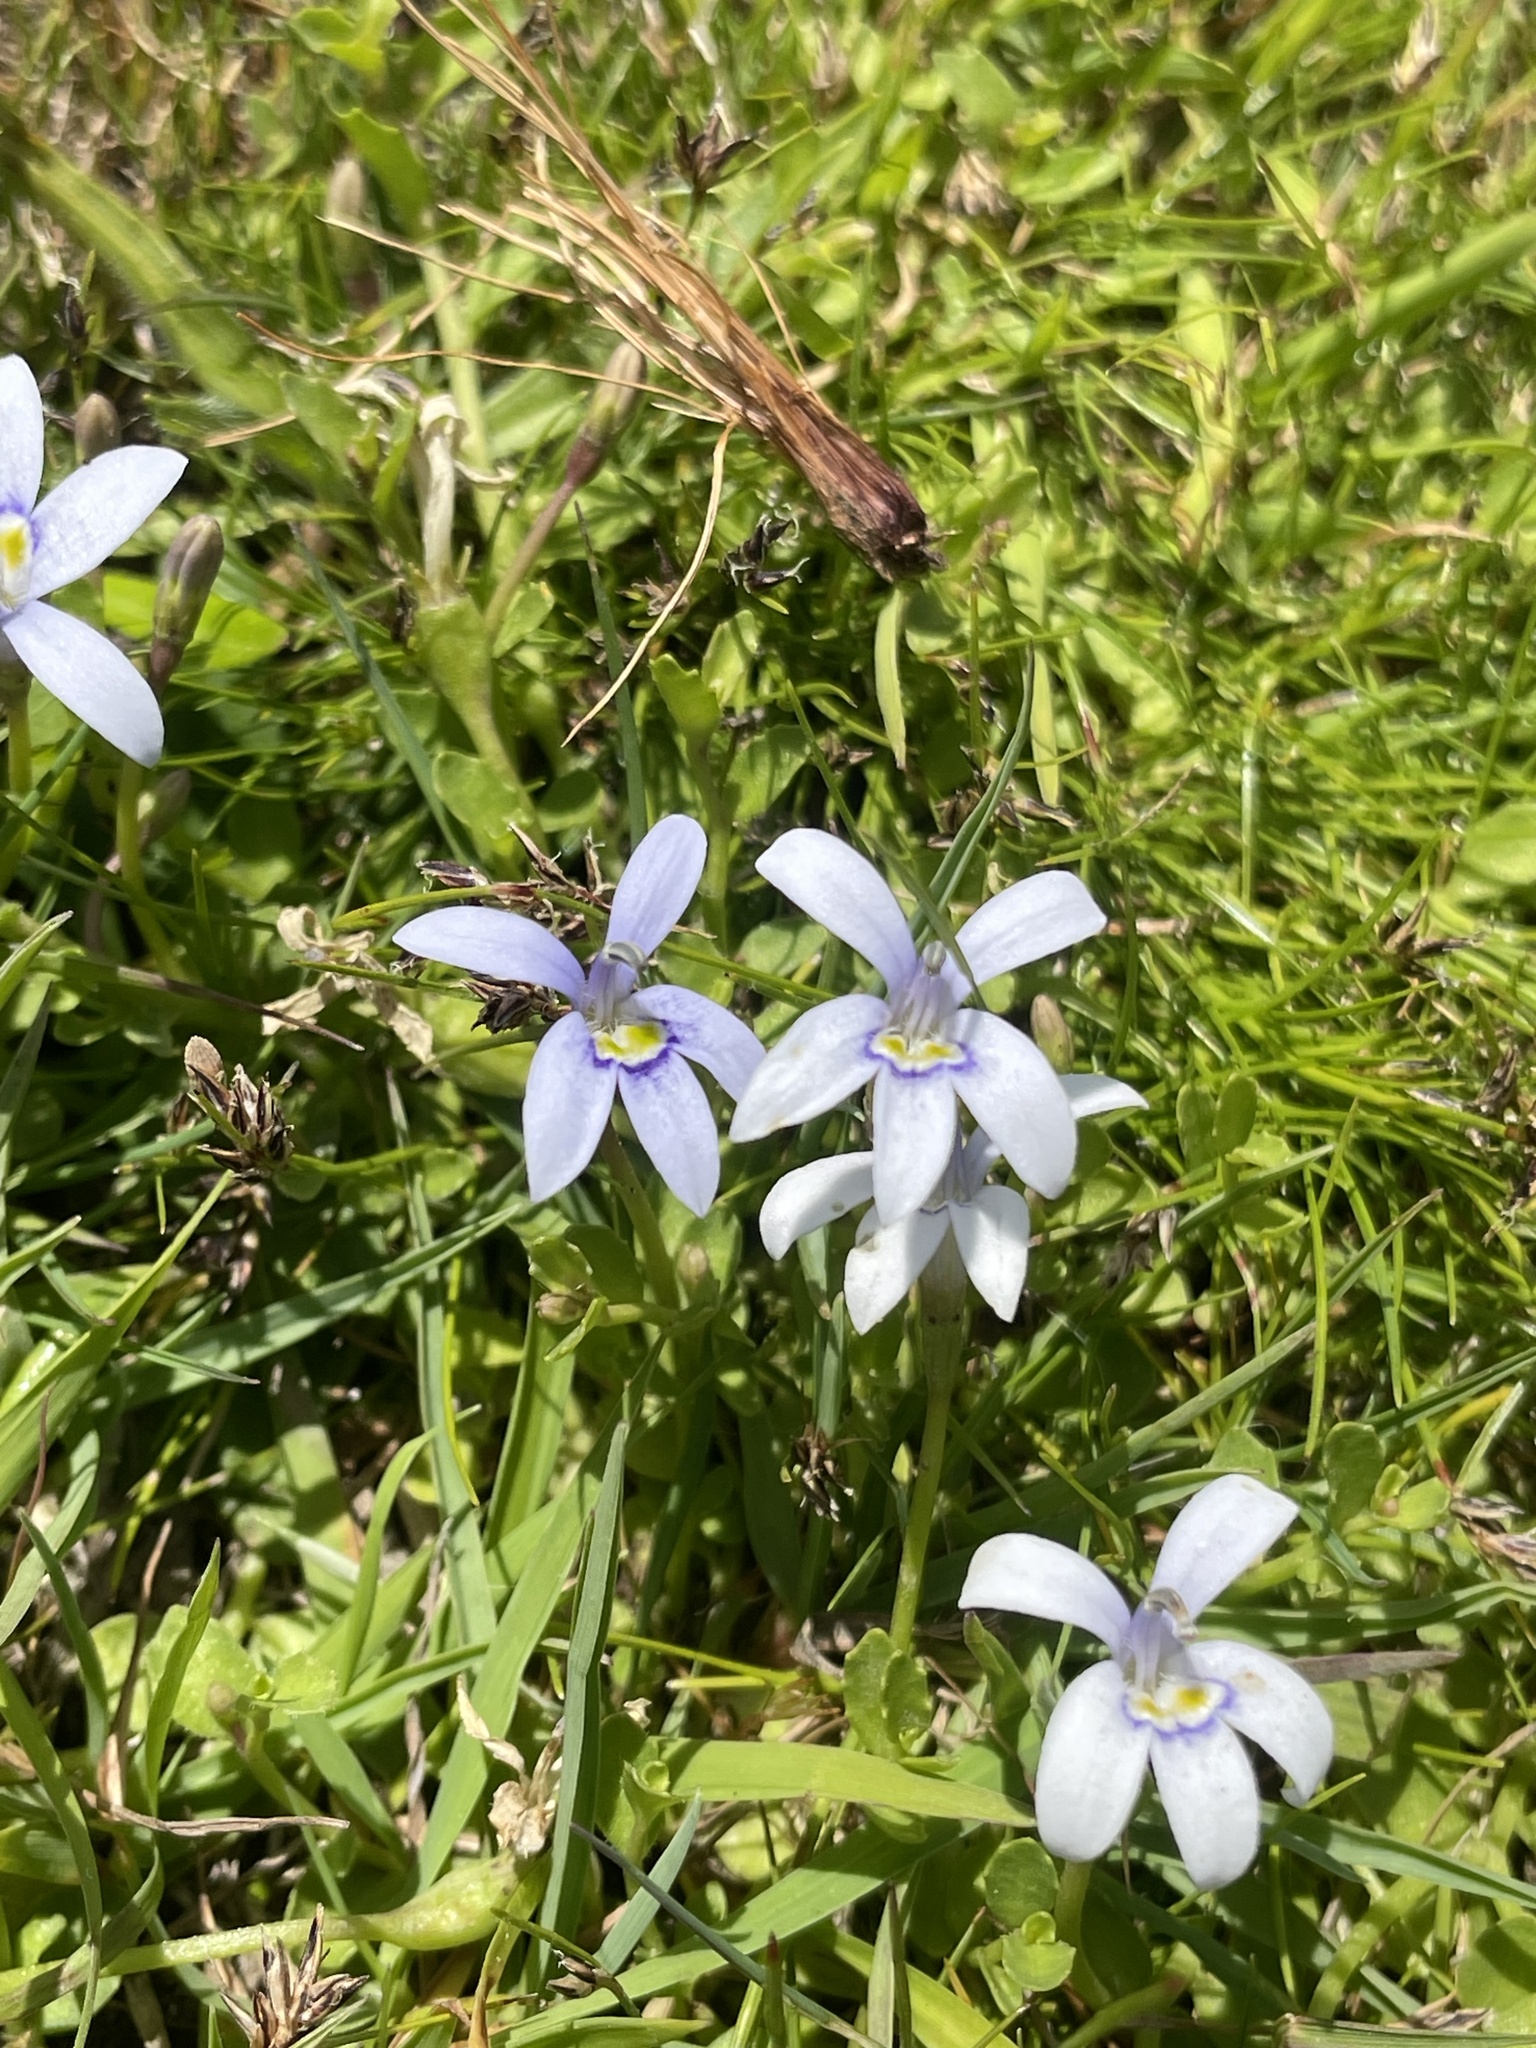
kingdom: Plantae
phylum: Tracheophyta
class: Magnoliopsida
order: Asterales
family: Campanulaceae
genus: Isotoma
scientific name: Isotoma fluviatilis
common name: Isotoma
